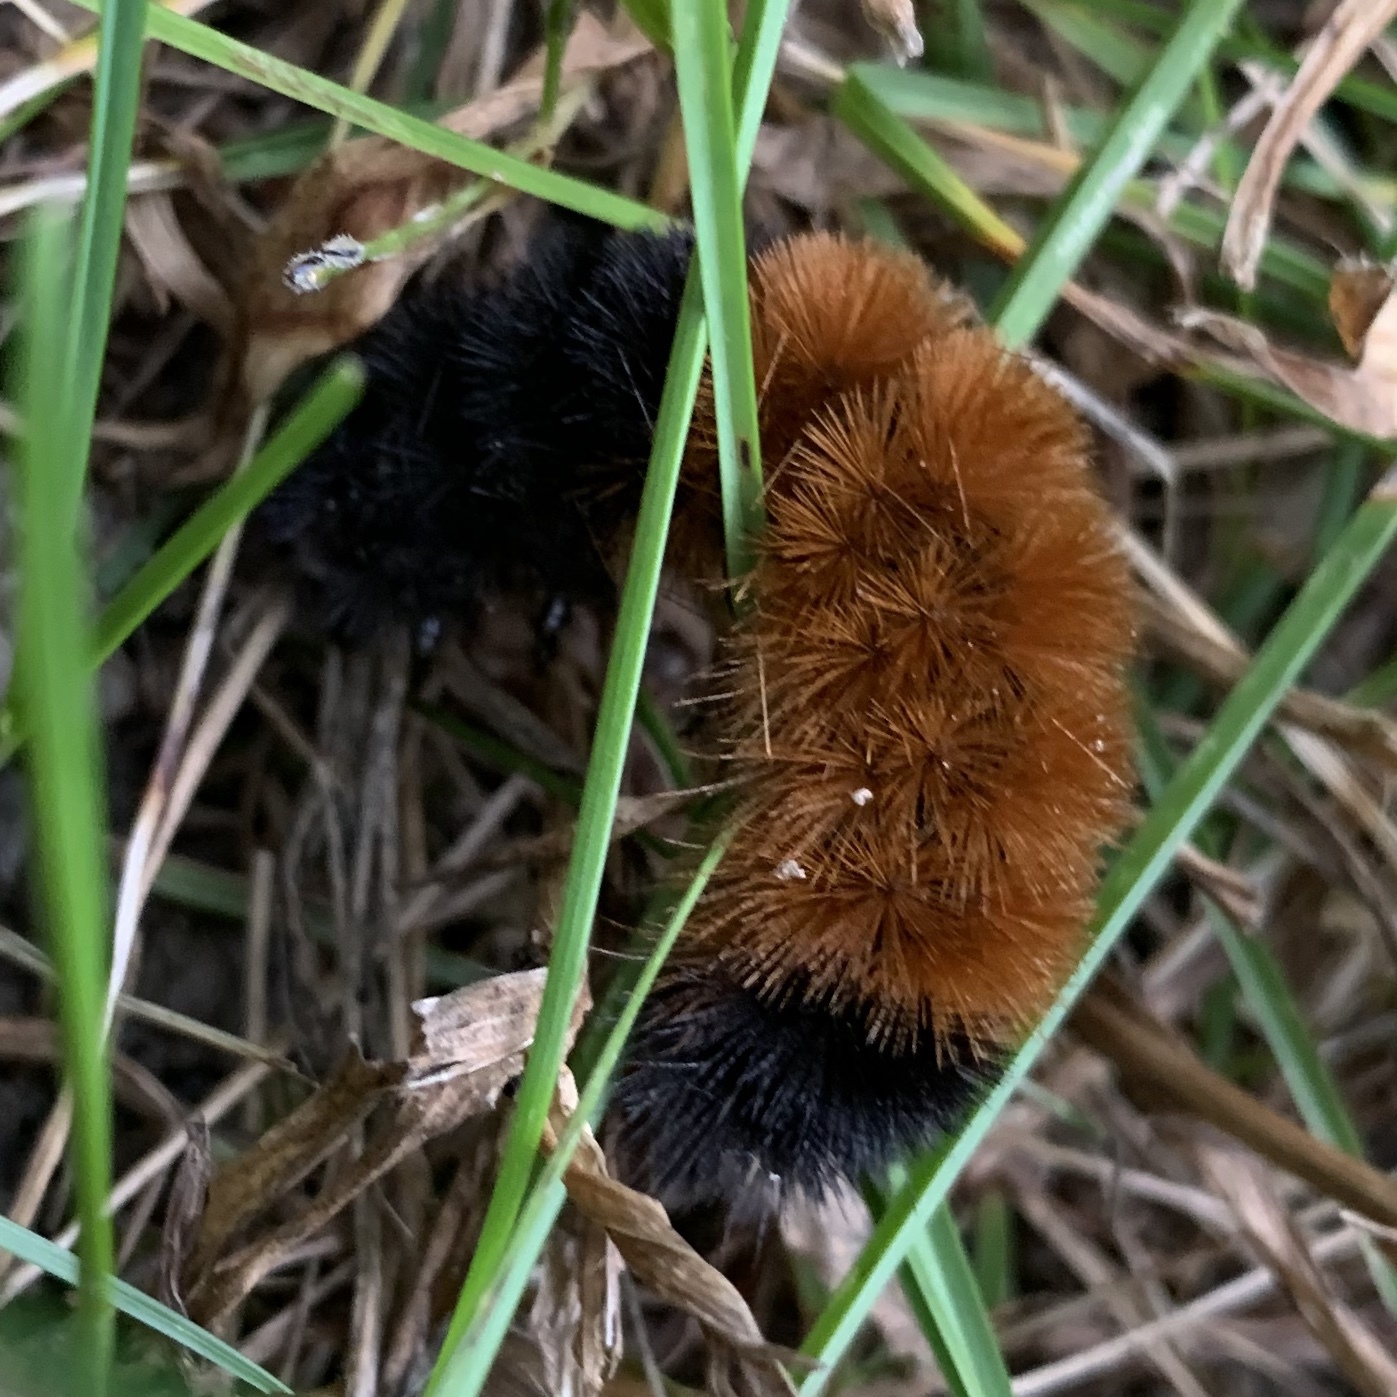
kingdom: Animalia
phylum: Arthropoda
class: Insecta
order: Lepidoptera
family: Erebidae
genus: Pyrrharctia
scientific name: Pyrrharctia isabella
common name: Isabella tiger moth
